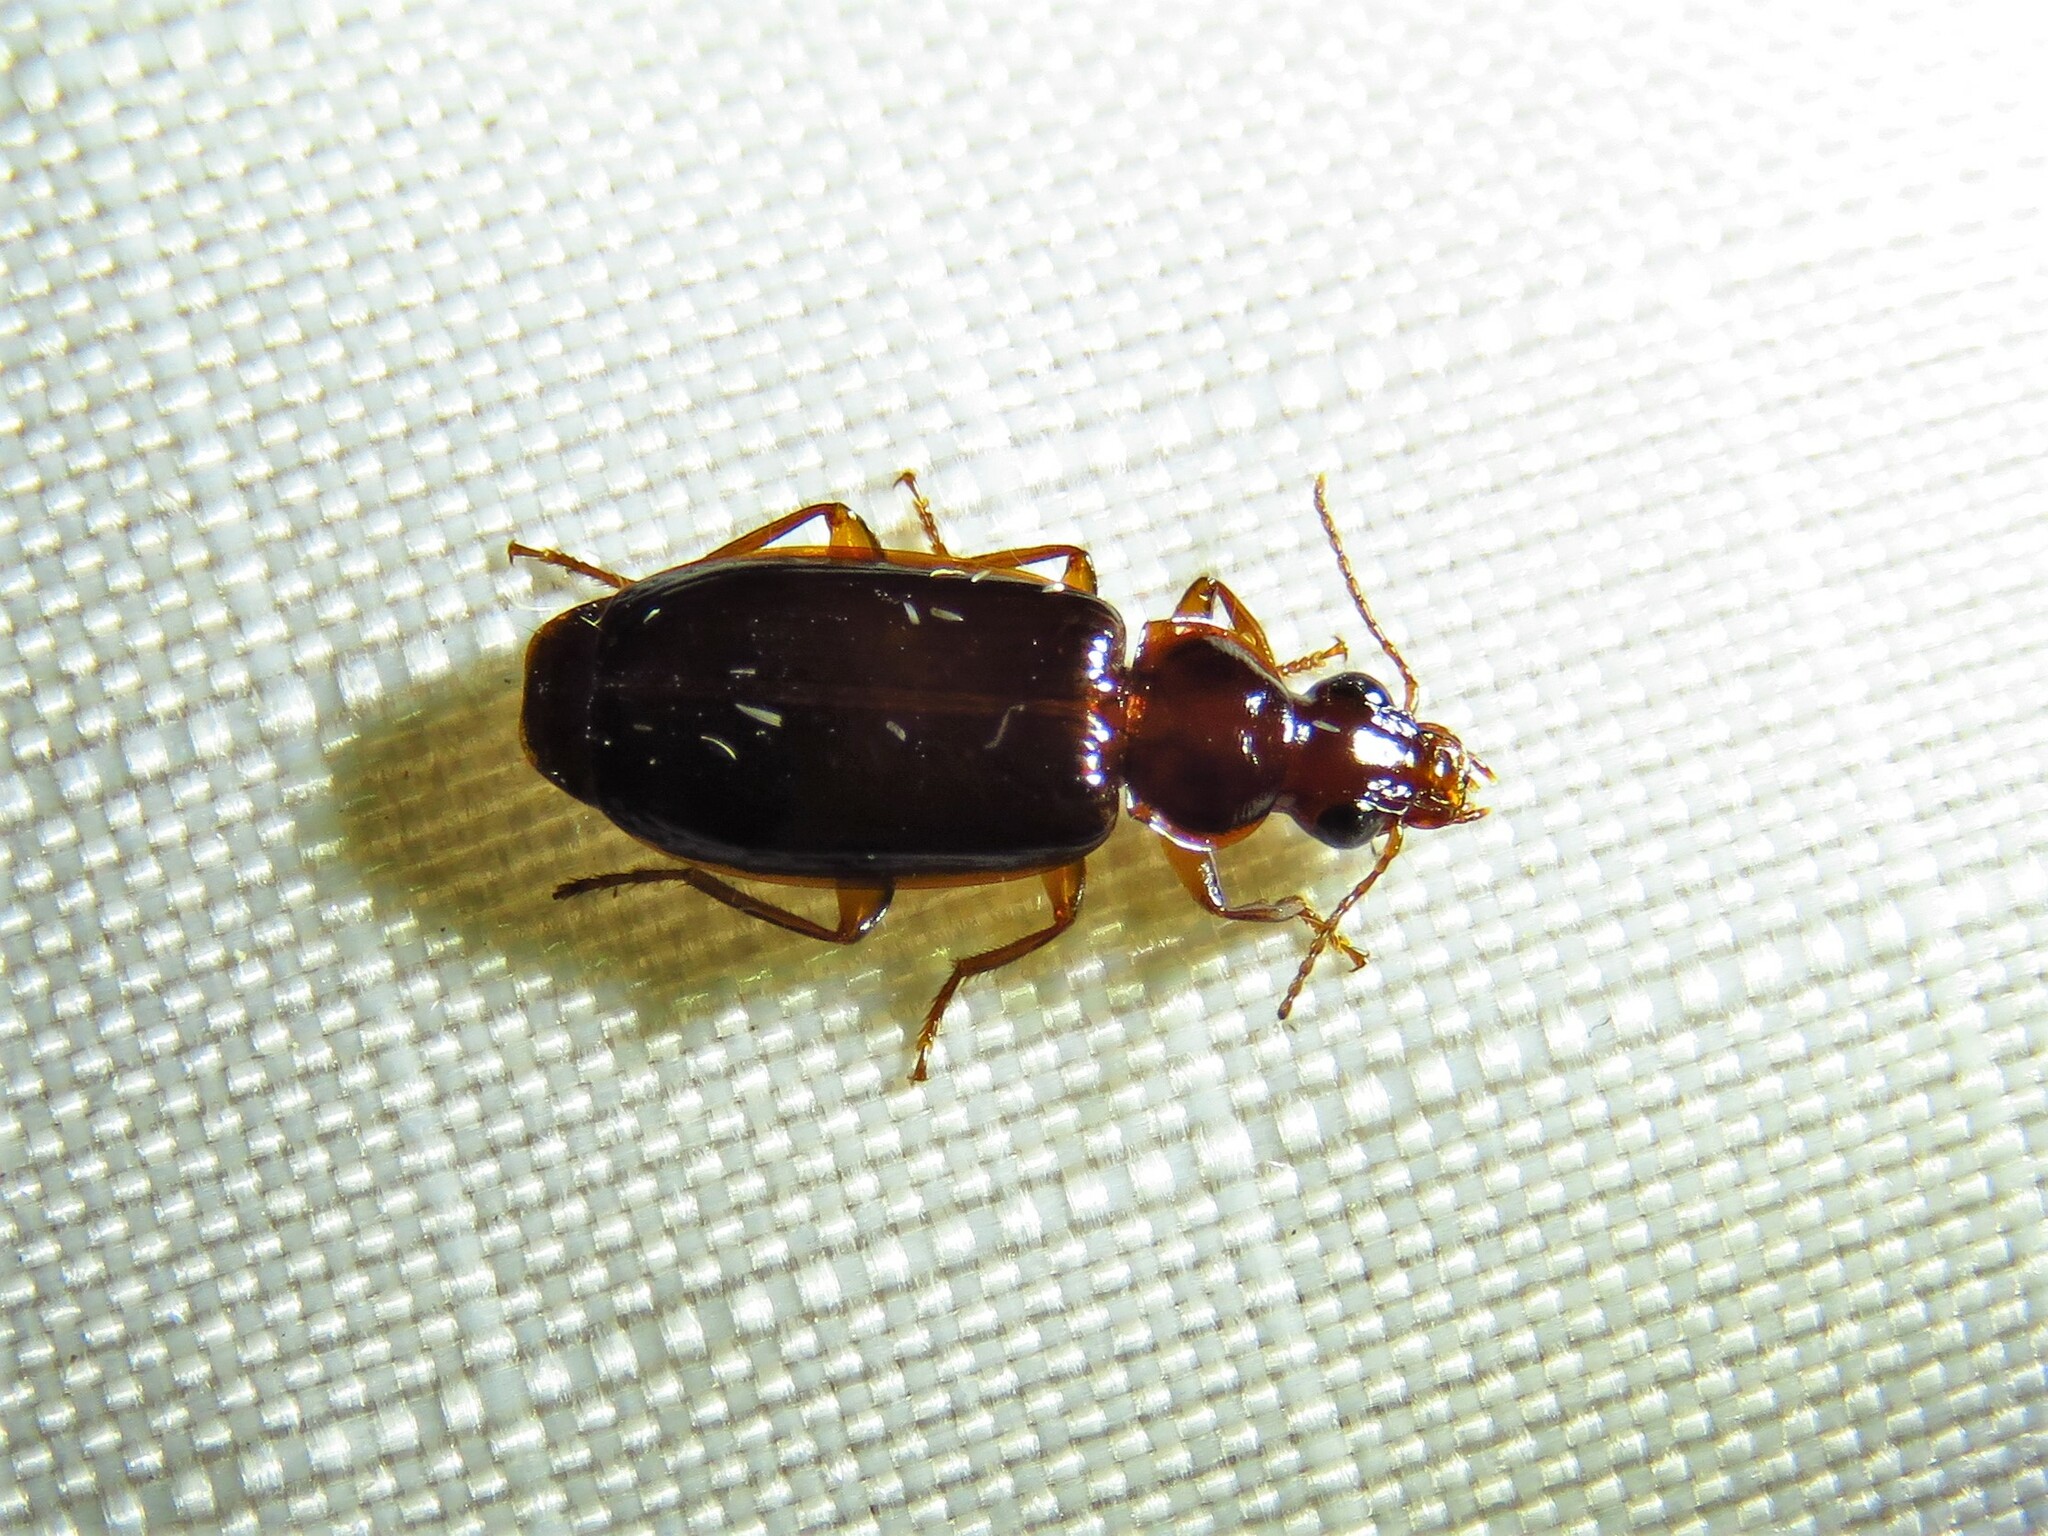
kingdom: Animalia
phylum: Arthropoda
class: Insecta
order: Coleoptera
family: Carabidae
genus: Plochionus
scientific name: Plochionus timidus
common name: Timid harp ground beetle
